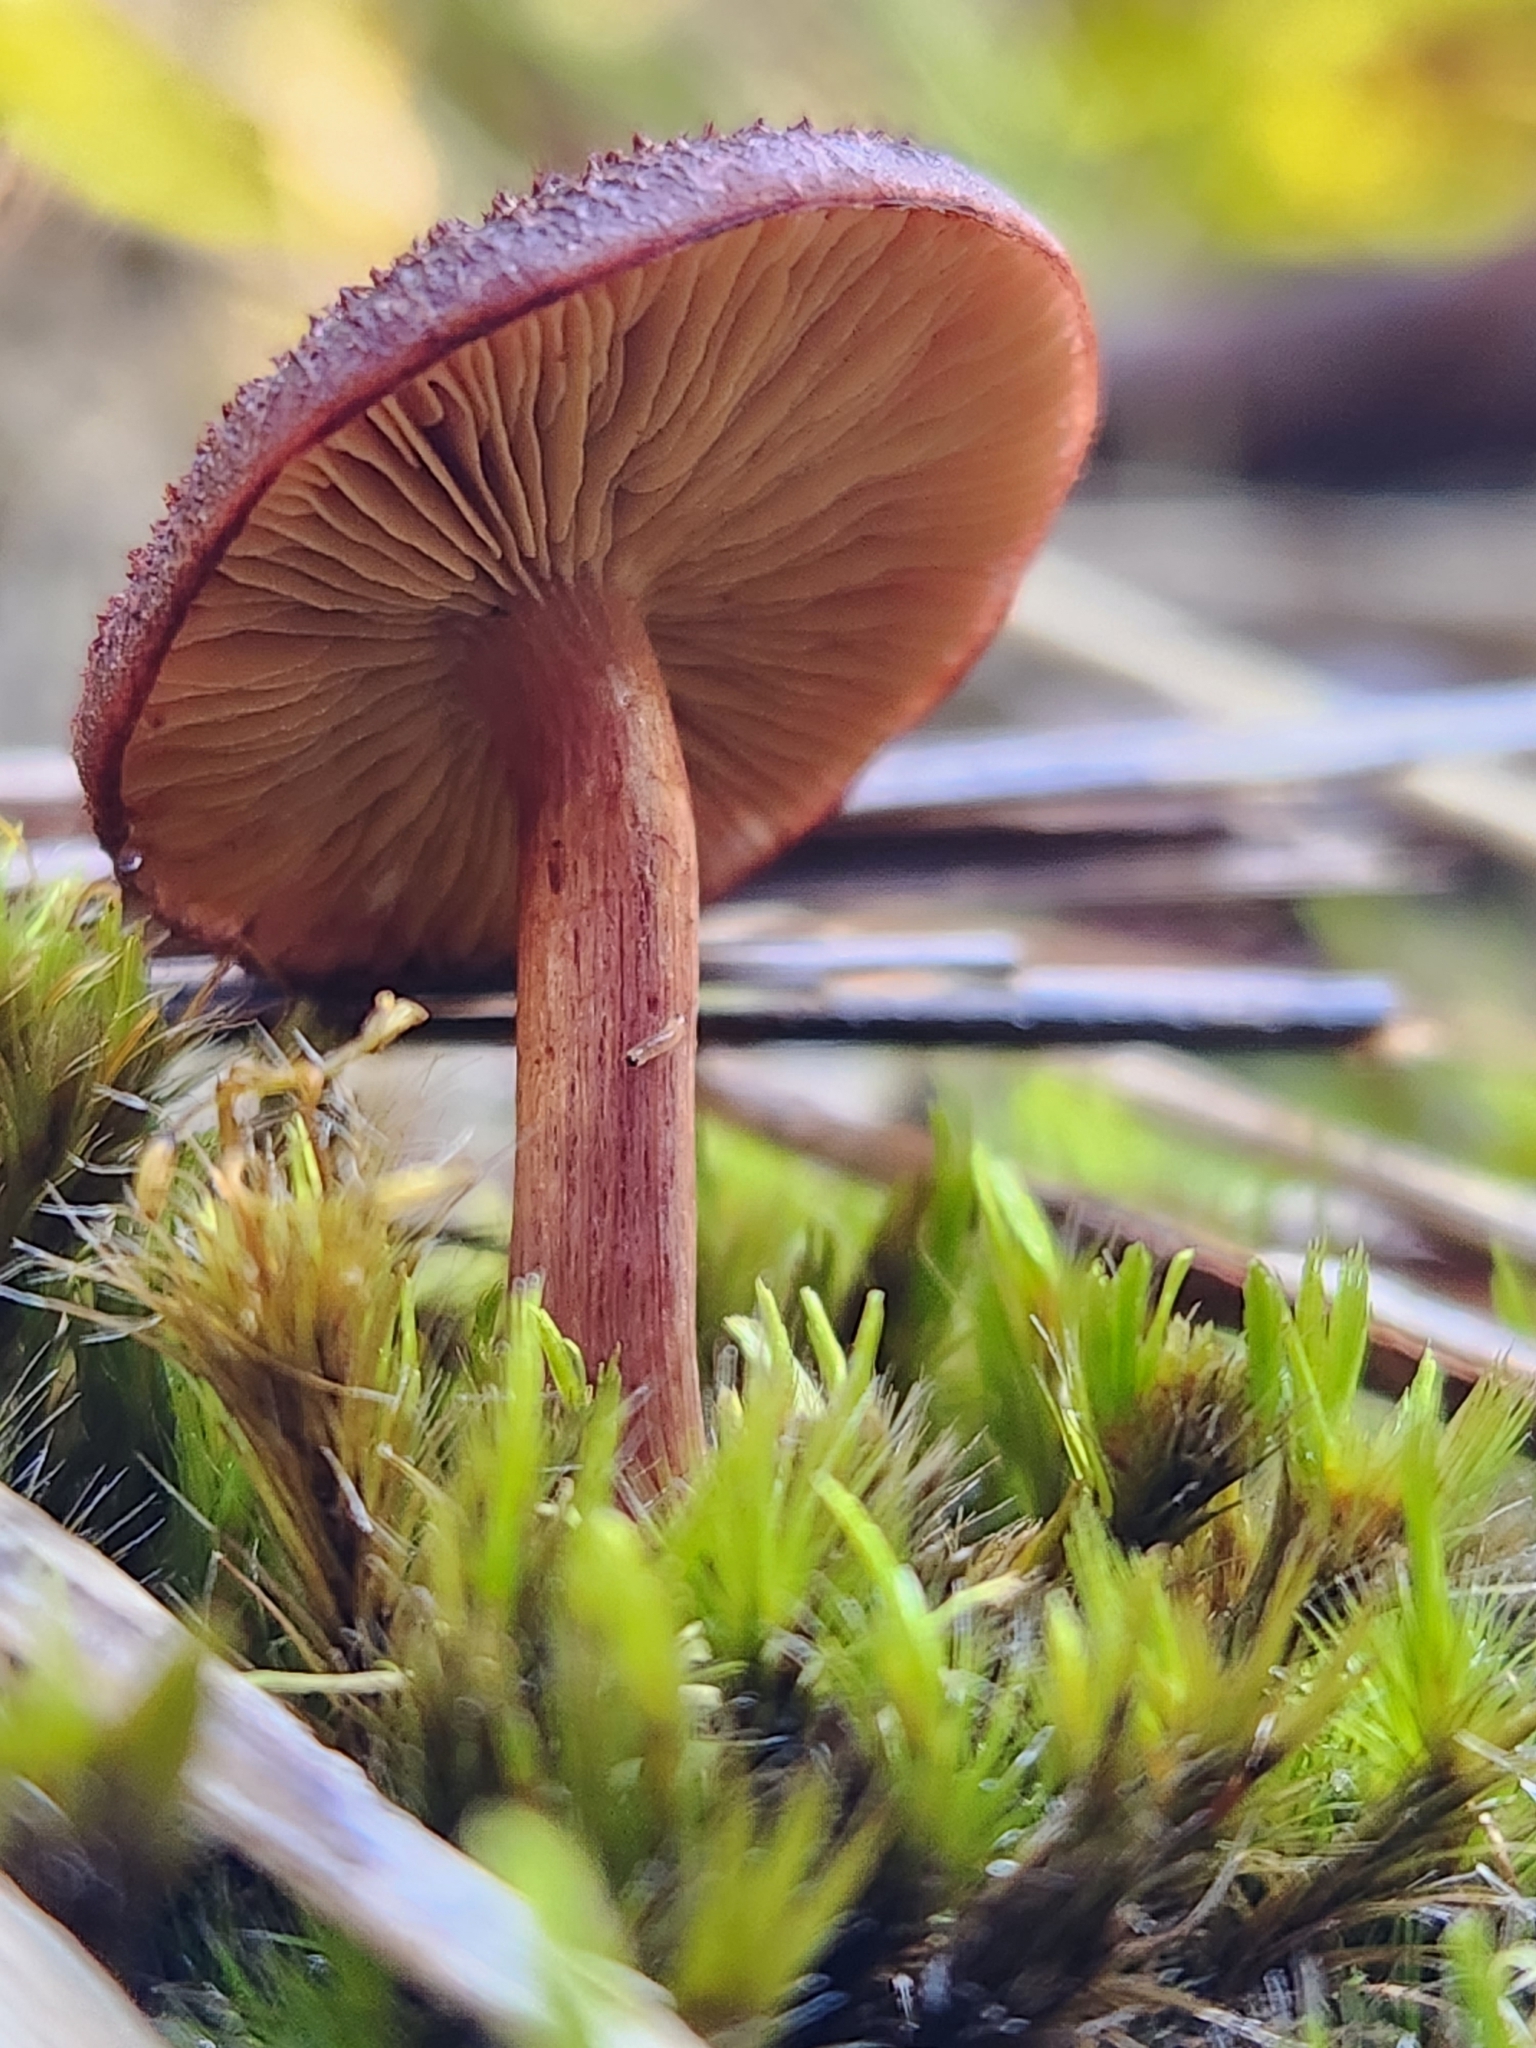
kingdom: Fungi
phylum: Basidiomycota
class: Agaricomycetes
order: Agaricales
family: Hymenogastraceae
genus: Gymnopilus
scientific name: Gymnopilus purpuratus
